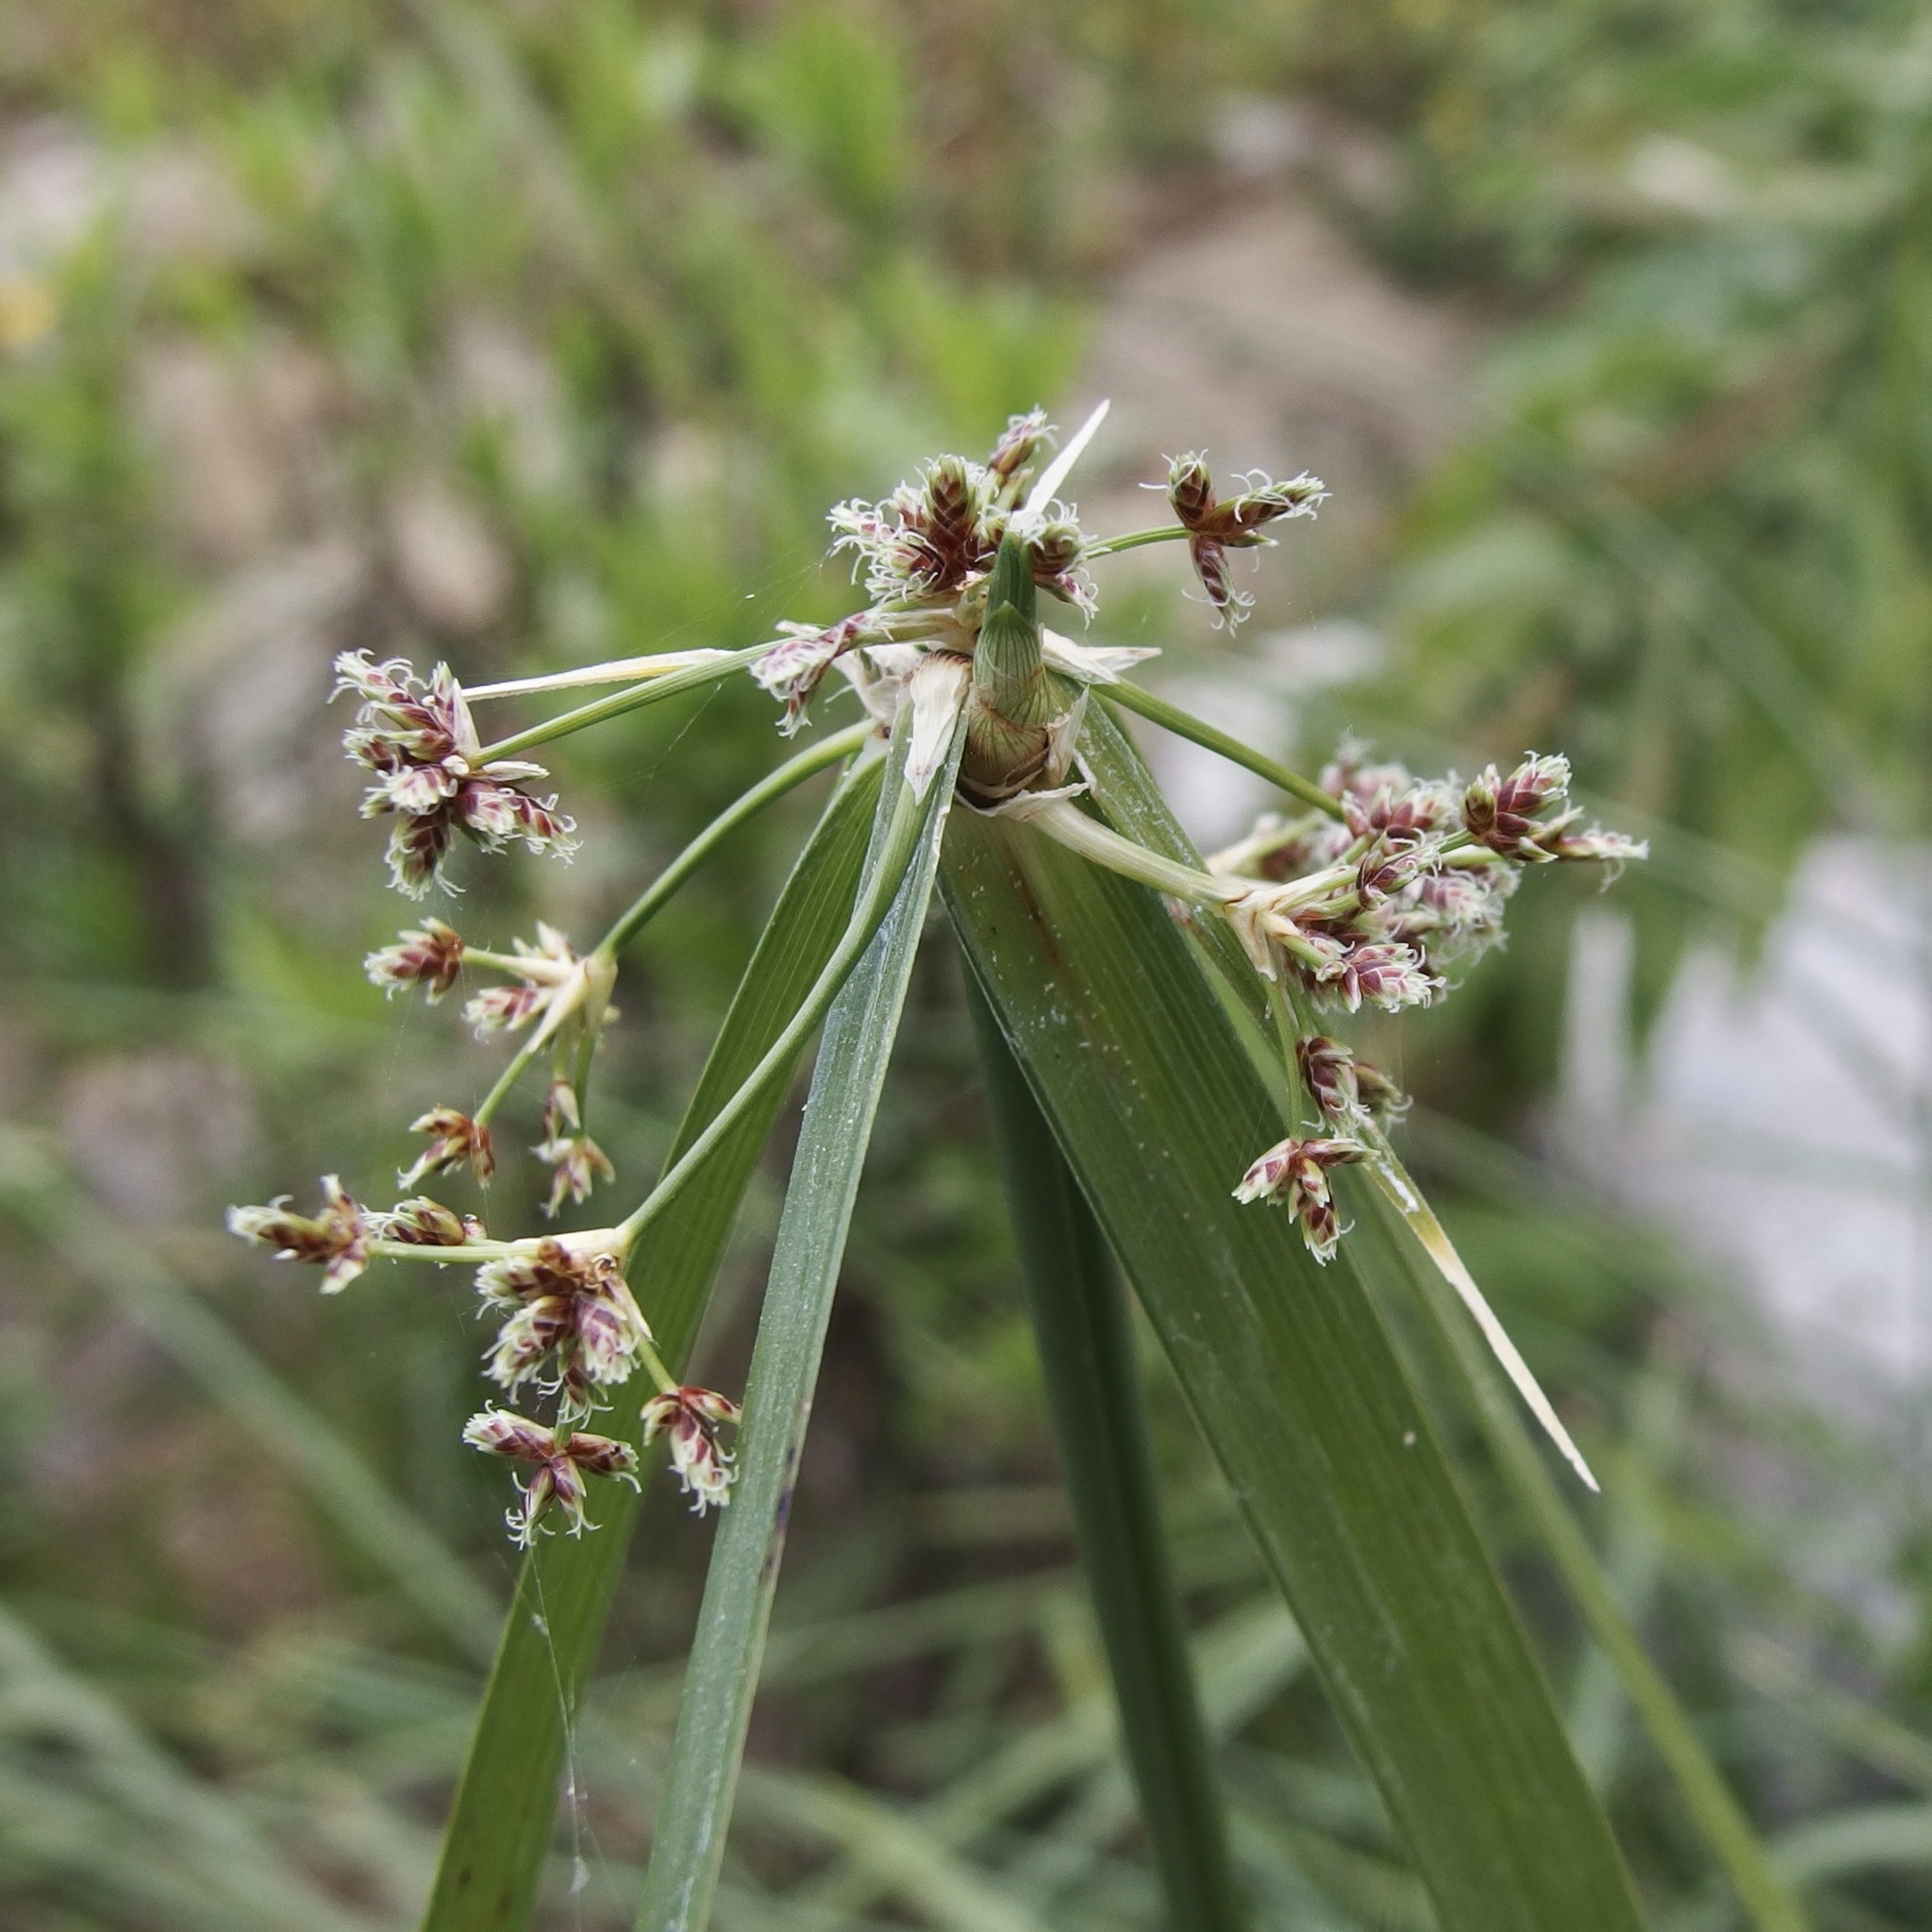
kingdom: Plantae
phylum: Tracheophyta
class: Liliopsida
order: Poales
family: Cyperaceae
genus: Cyperus
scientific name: Cyperus dioicus
